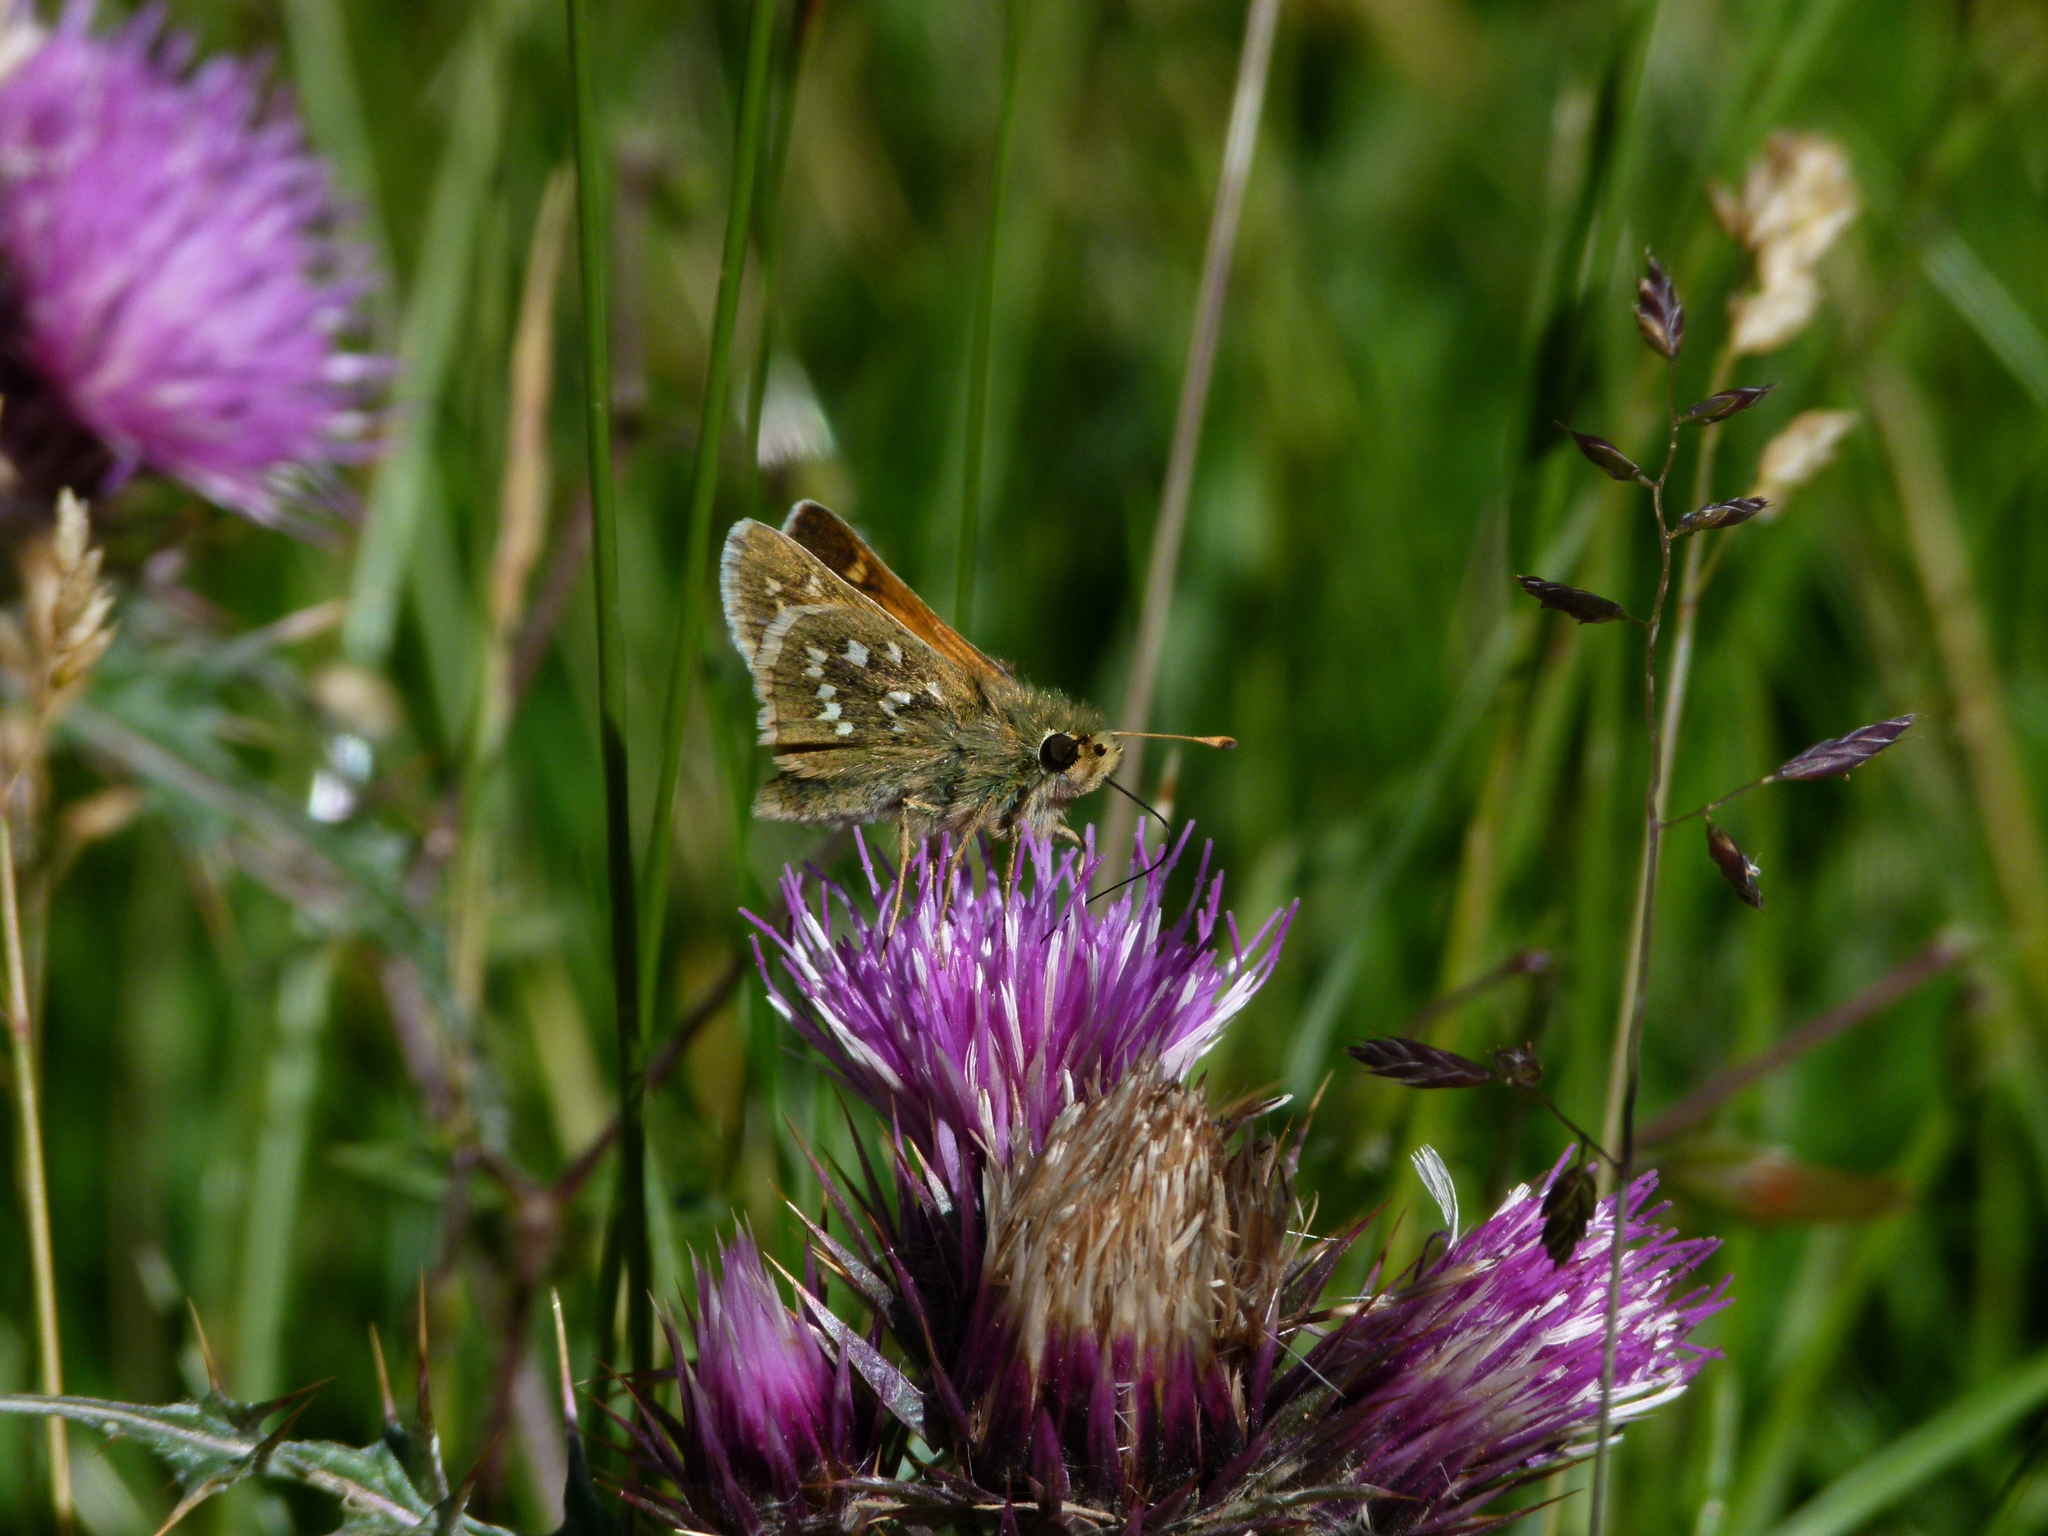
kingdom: Animalia
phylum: Arthropoda
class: Insecta
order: Lepidoptera
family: Hesperiidae
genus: Hesperia
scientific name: Hesperia comma
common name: Common branded skipper
